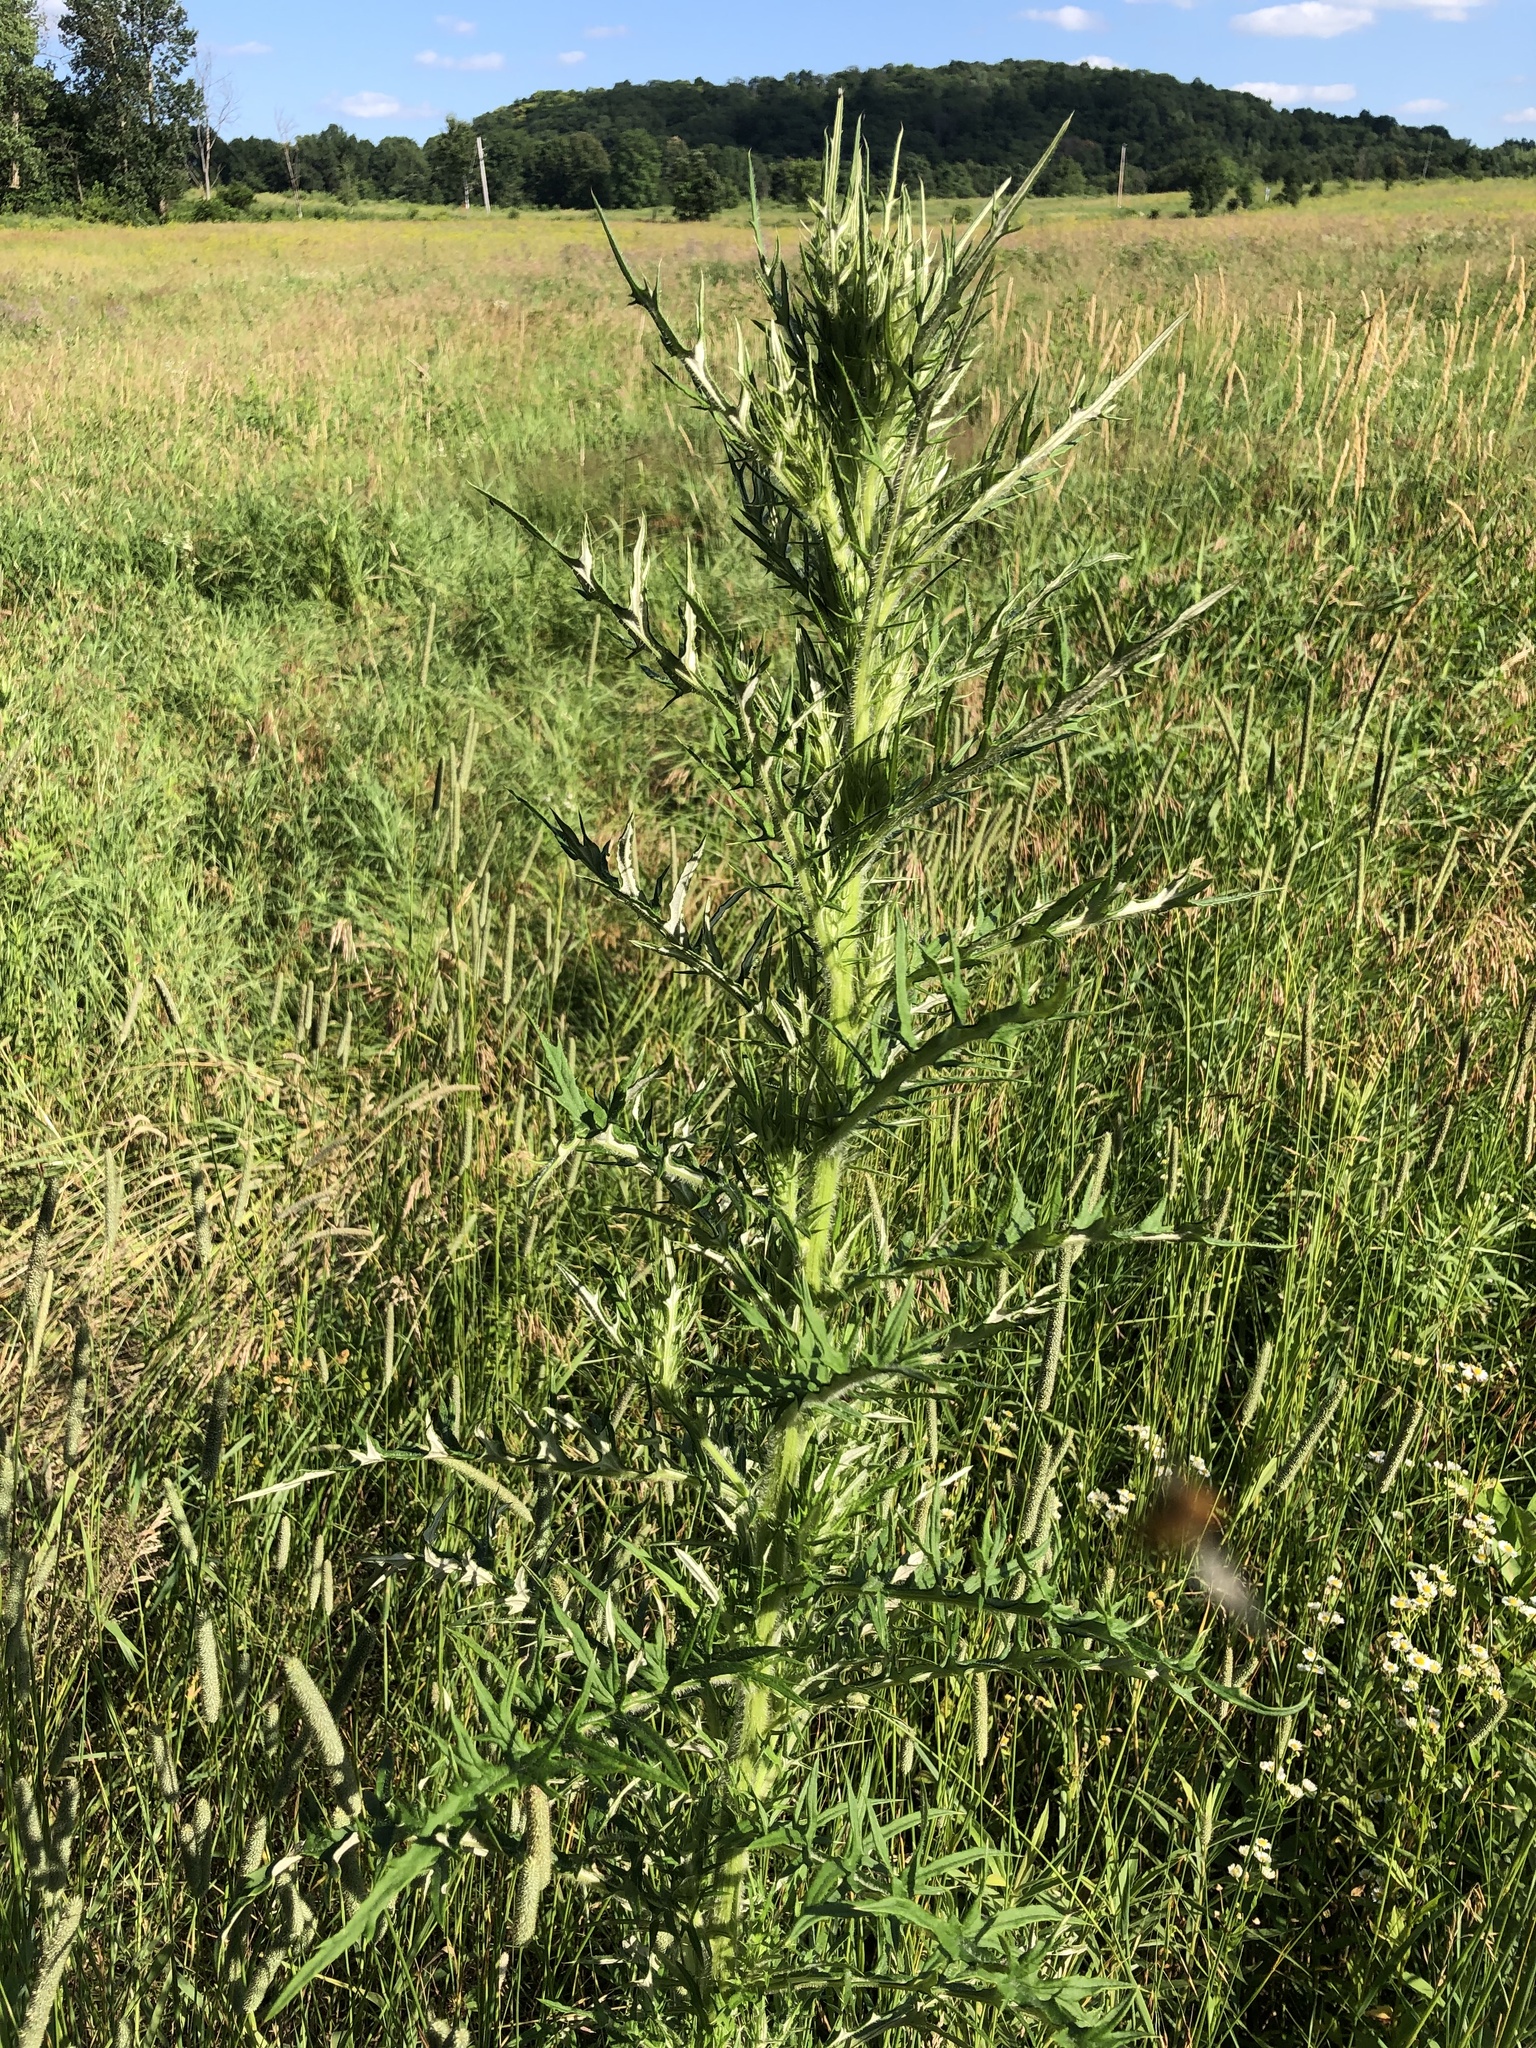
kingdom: Plantae
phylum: Tracheophyta
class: Magnoliopsida
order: Asterales
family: Asteraceae
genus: Cirsium
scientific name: Cirsium discolor
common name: Field thistle
